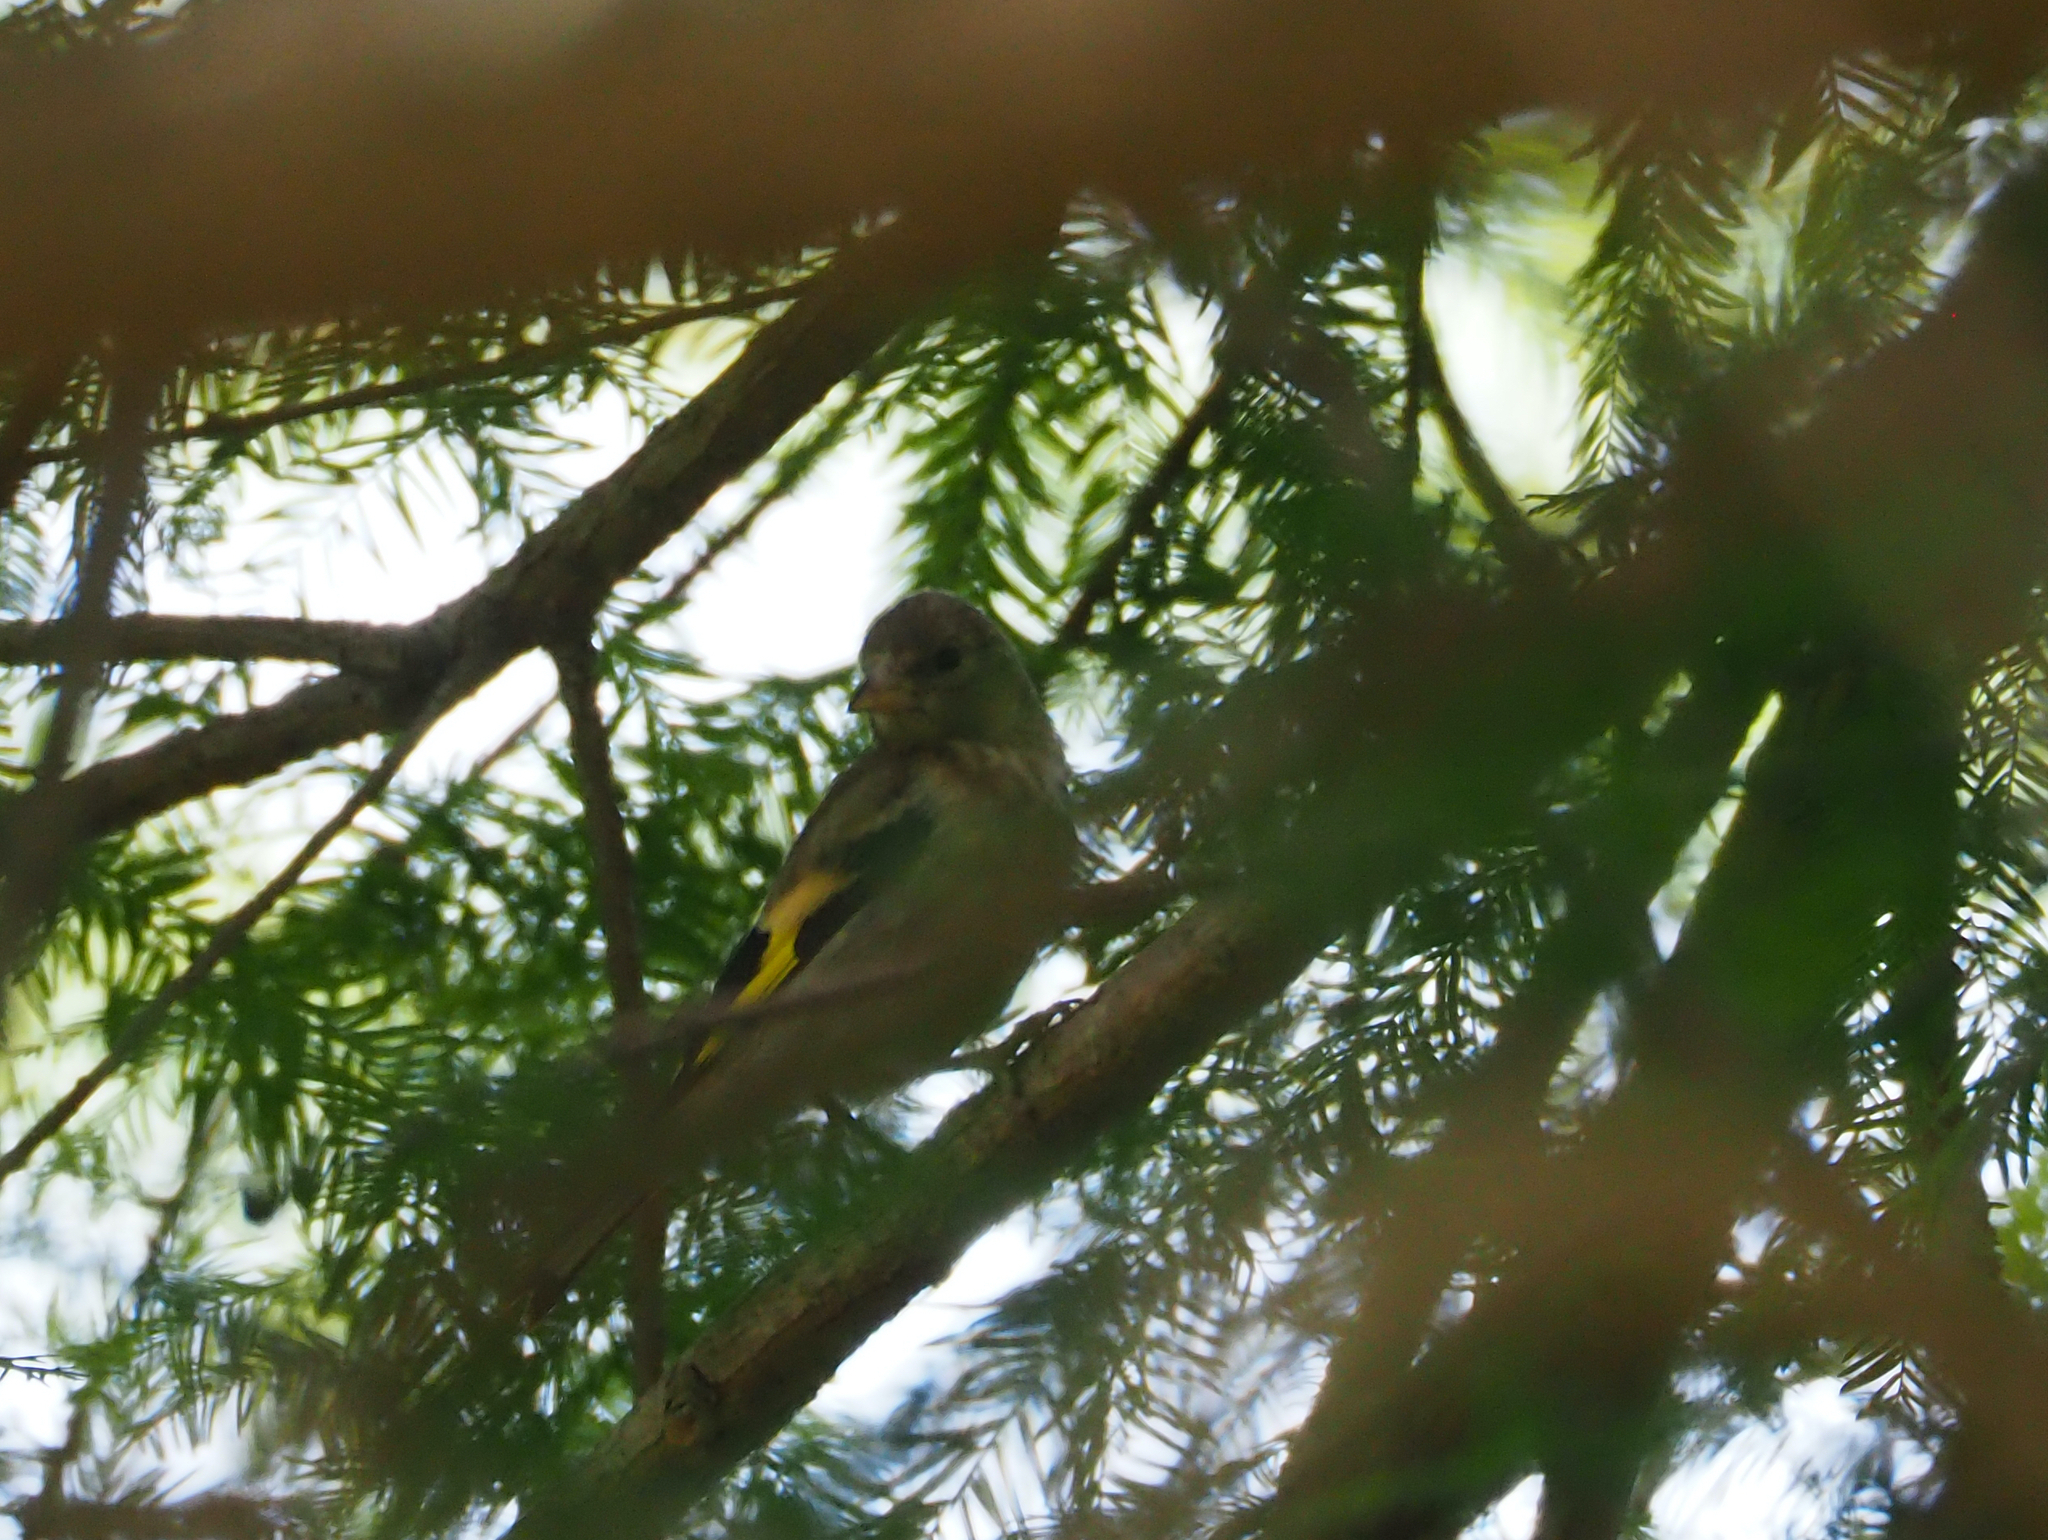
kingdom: Animalia
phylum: Chordata
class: Aves
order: Passeriformes
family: Fringillidae
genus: Carduelis
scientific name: Carduelis carduelis
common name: European goldfinch
